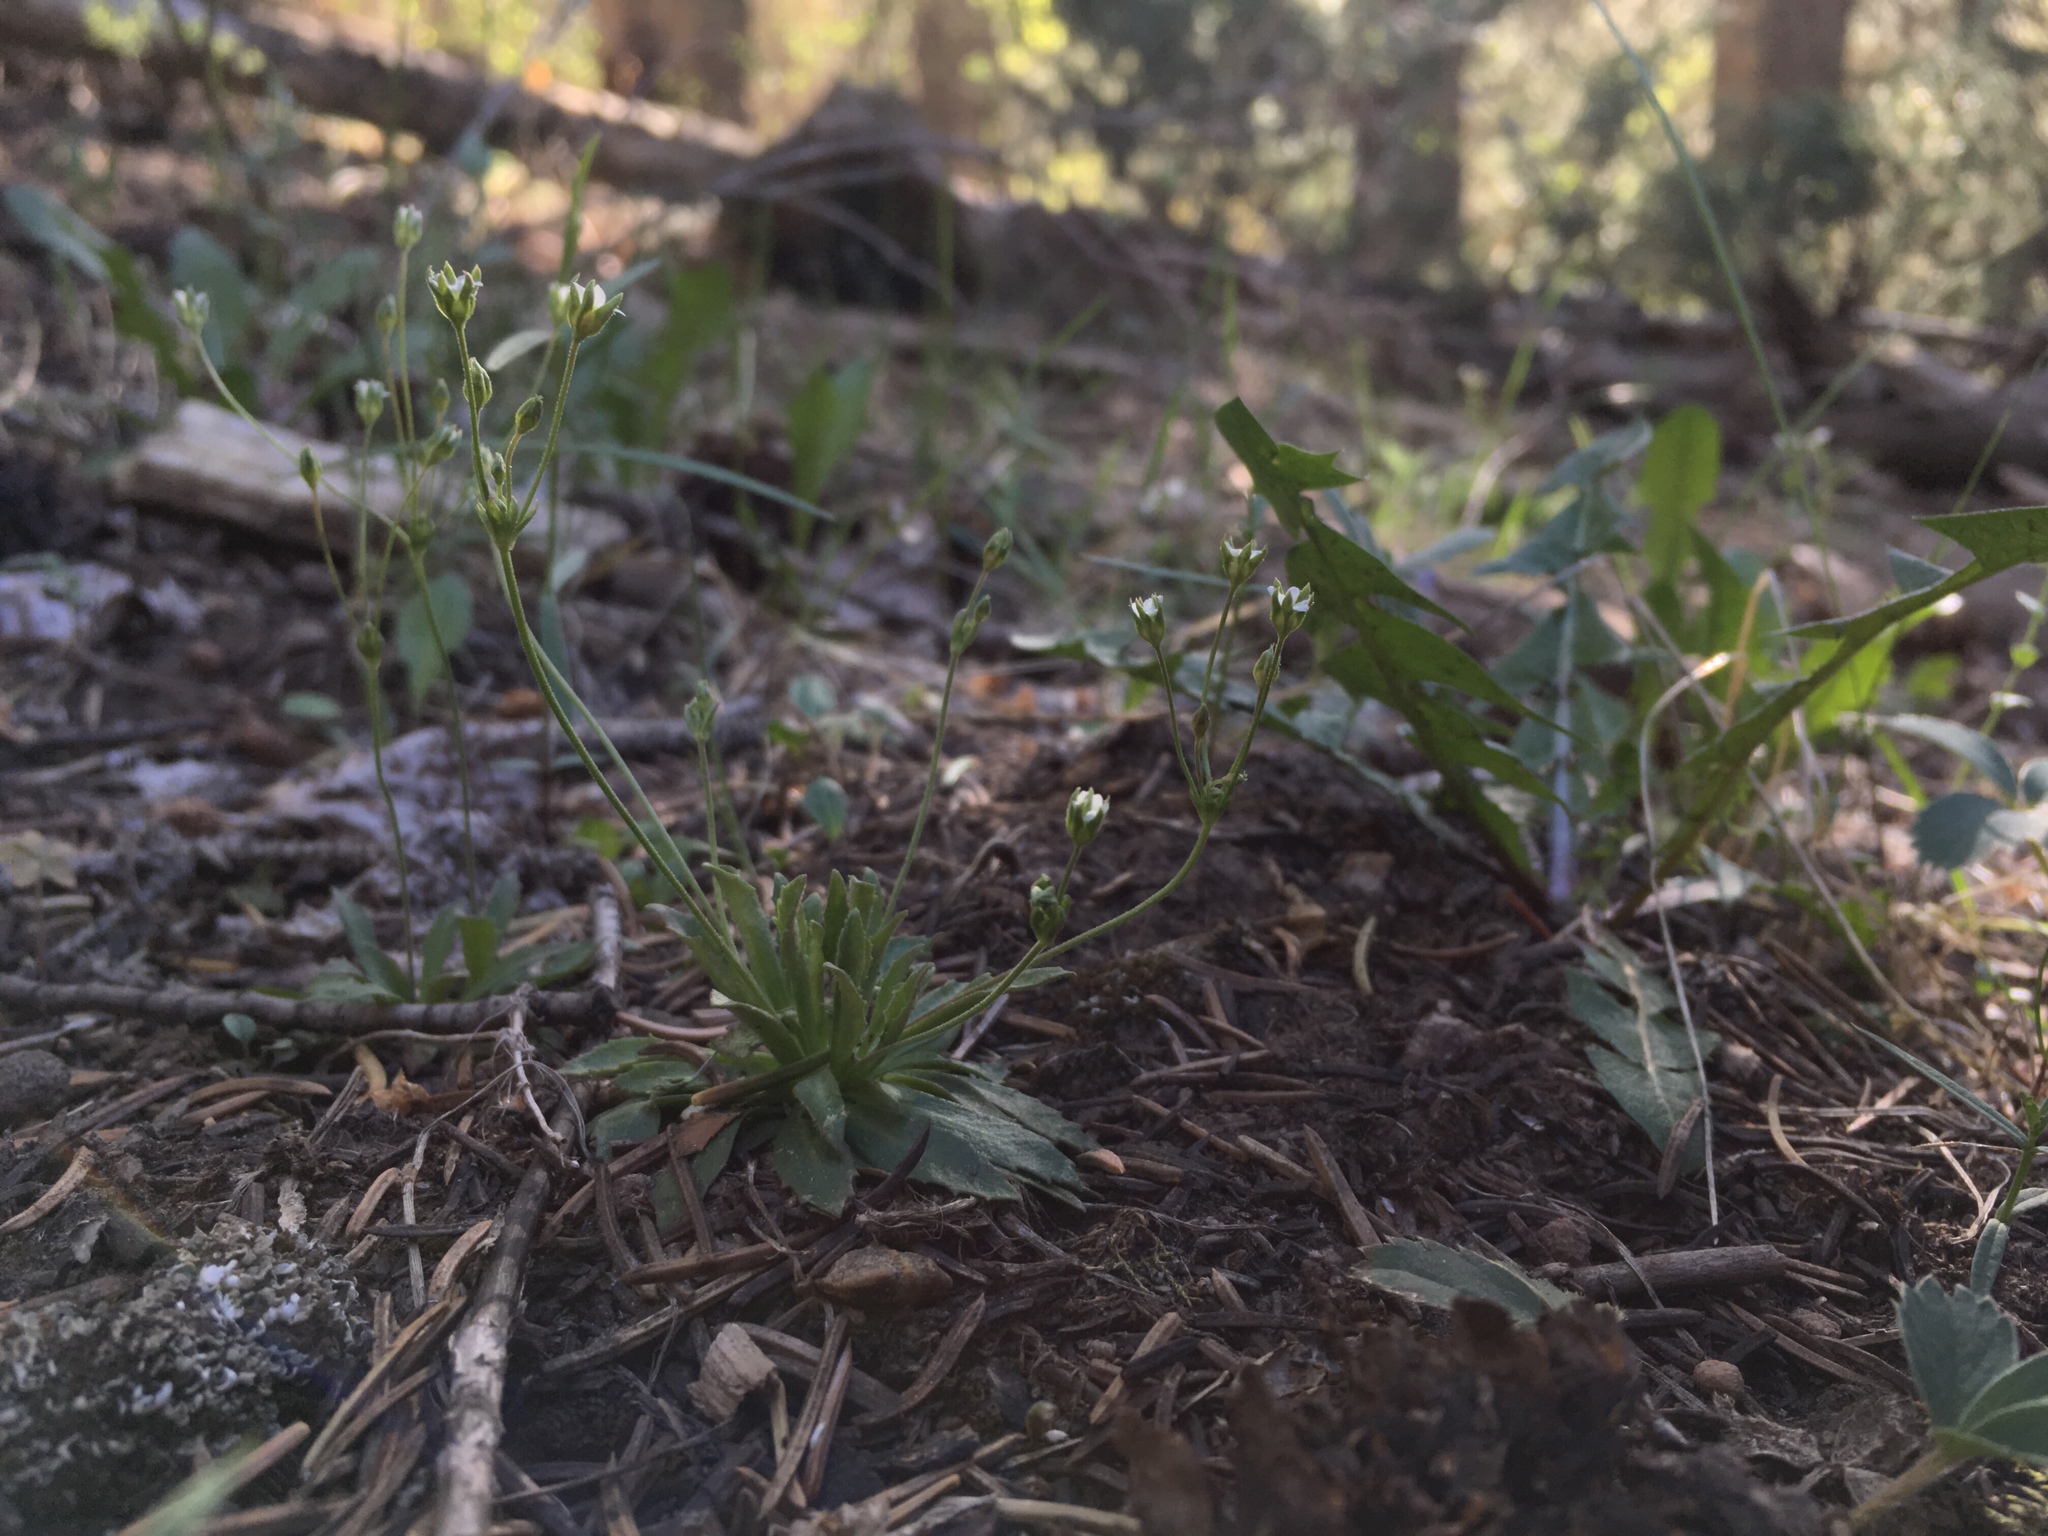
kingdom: Plantae
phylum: Tracheophyta
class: Magnoliopsida
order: Ericales
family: Primulaceae
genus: Androsace
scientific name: Androsace septentrionalis
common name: Hairy northern fairy-candelabra
